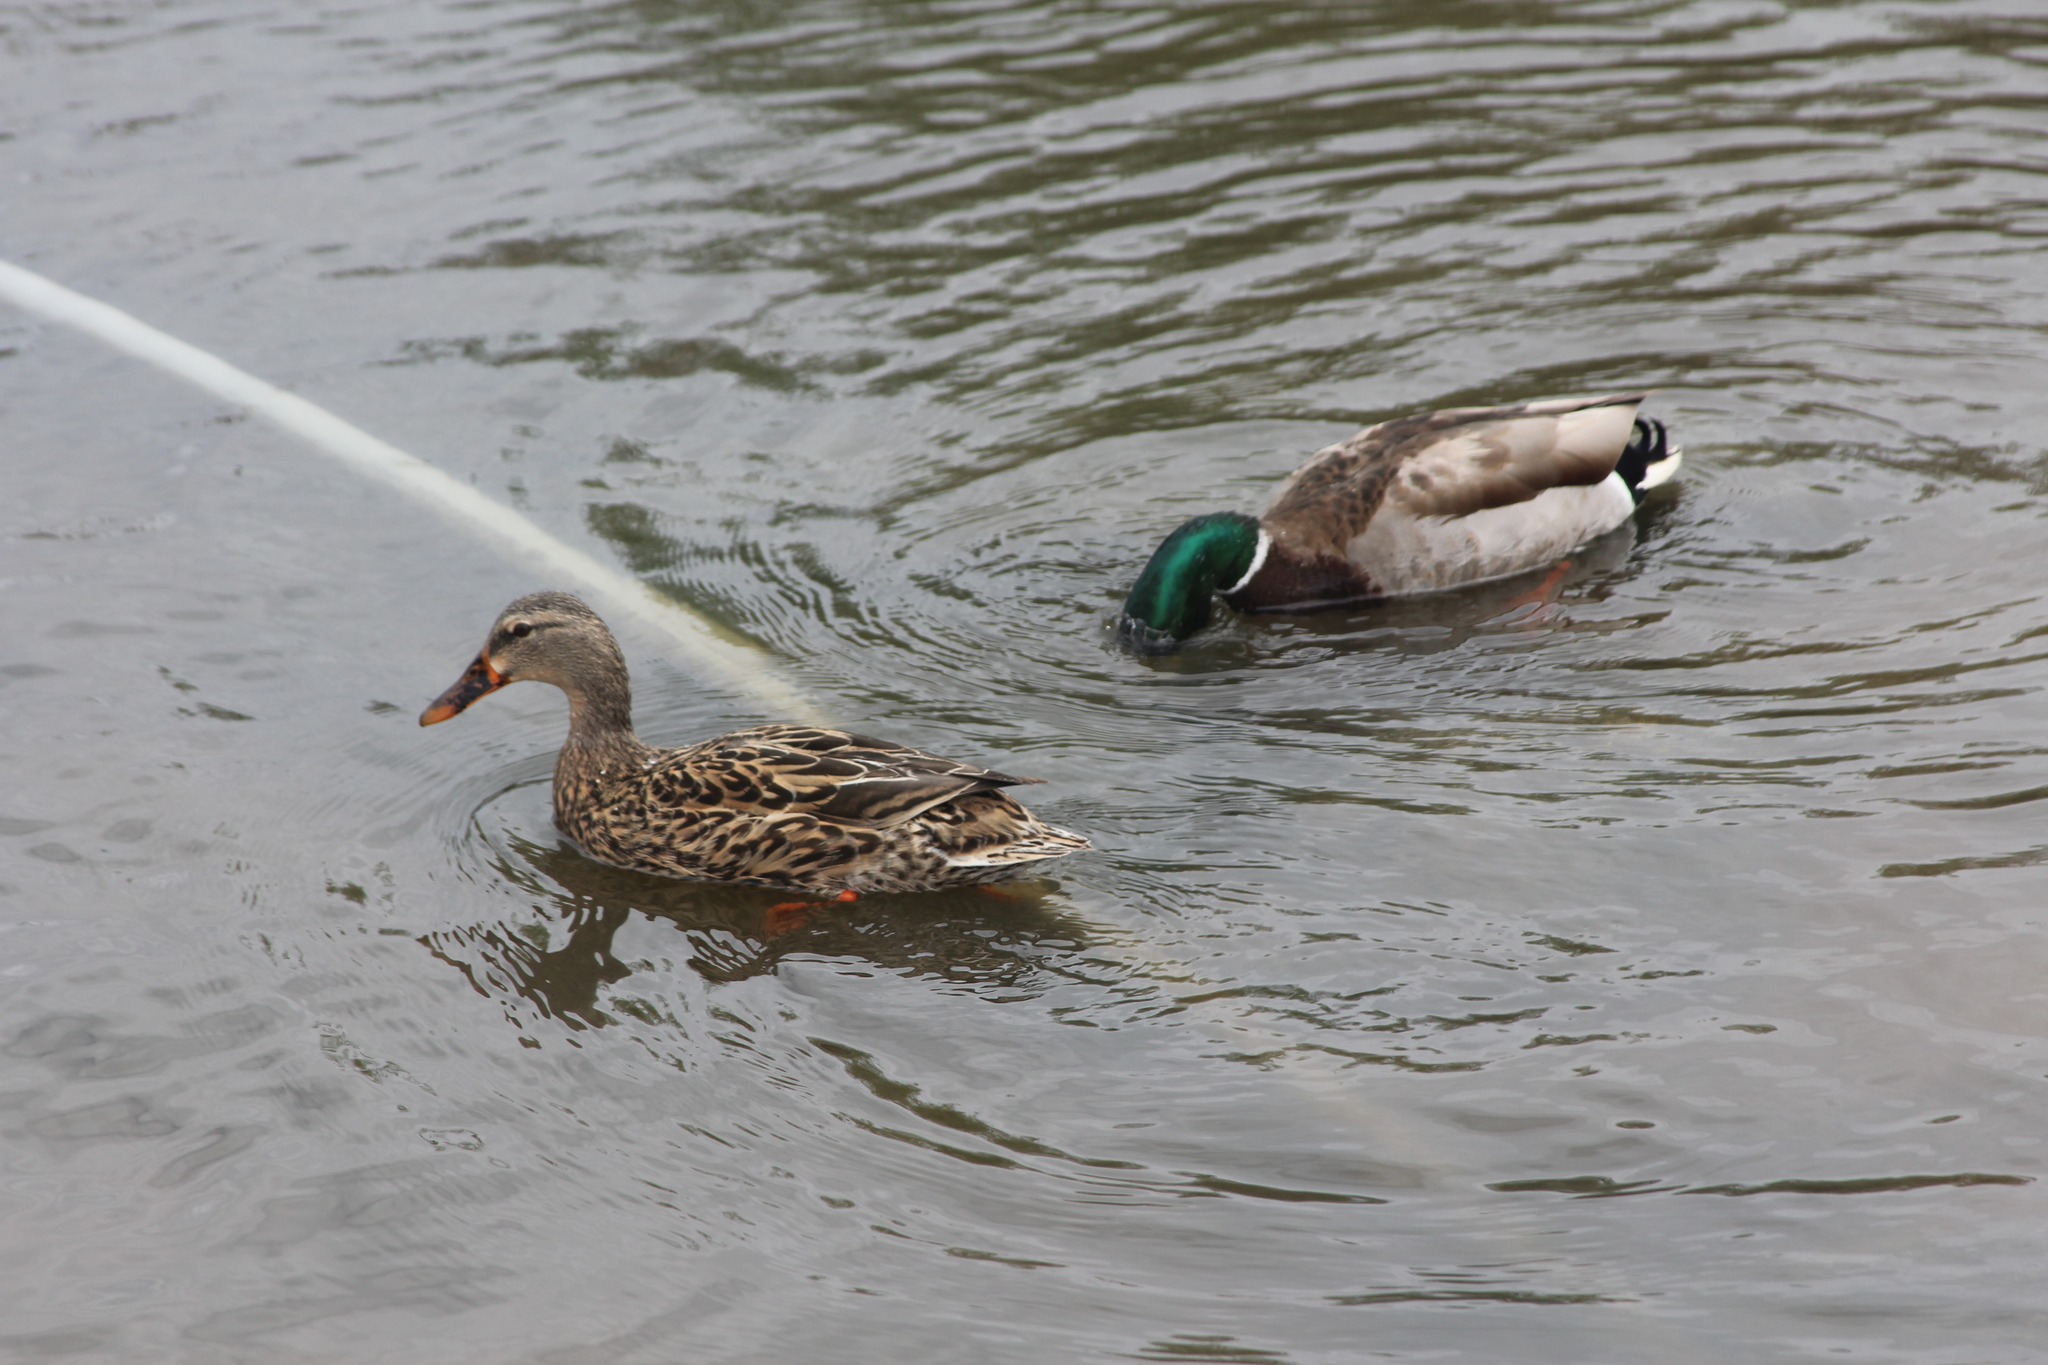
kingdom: Animalia
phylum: Chordata
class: Aves
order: Anseriformes
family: Anatidae
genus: Anas
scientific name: Anas platyrhynchos
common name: Mallard
